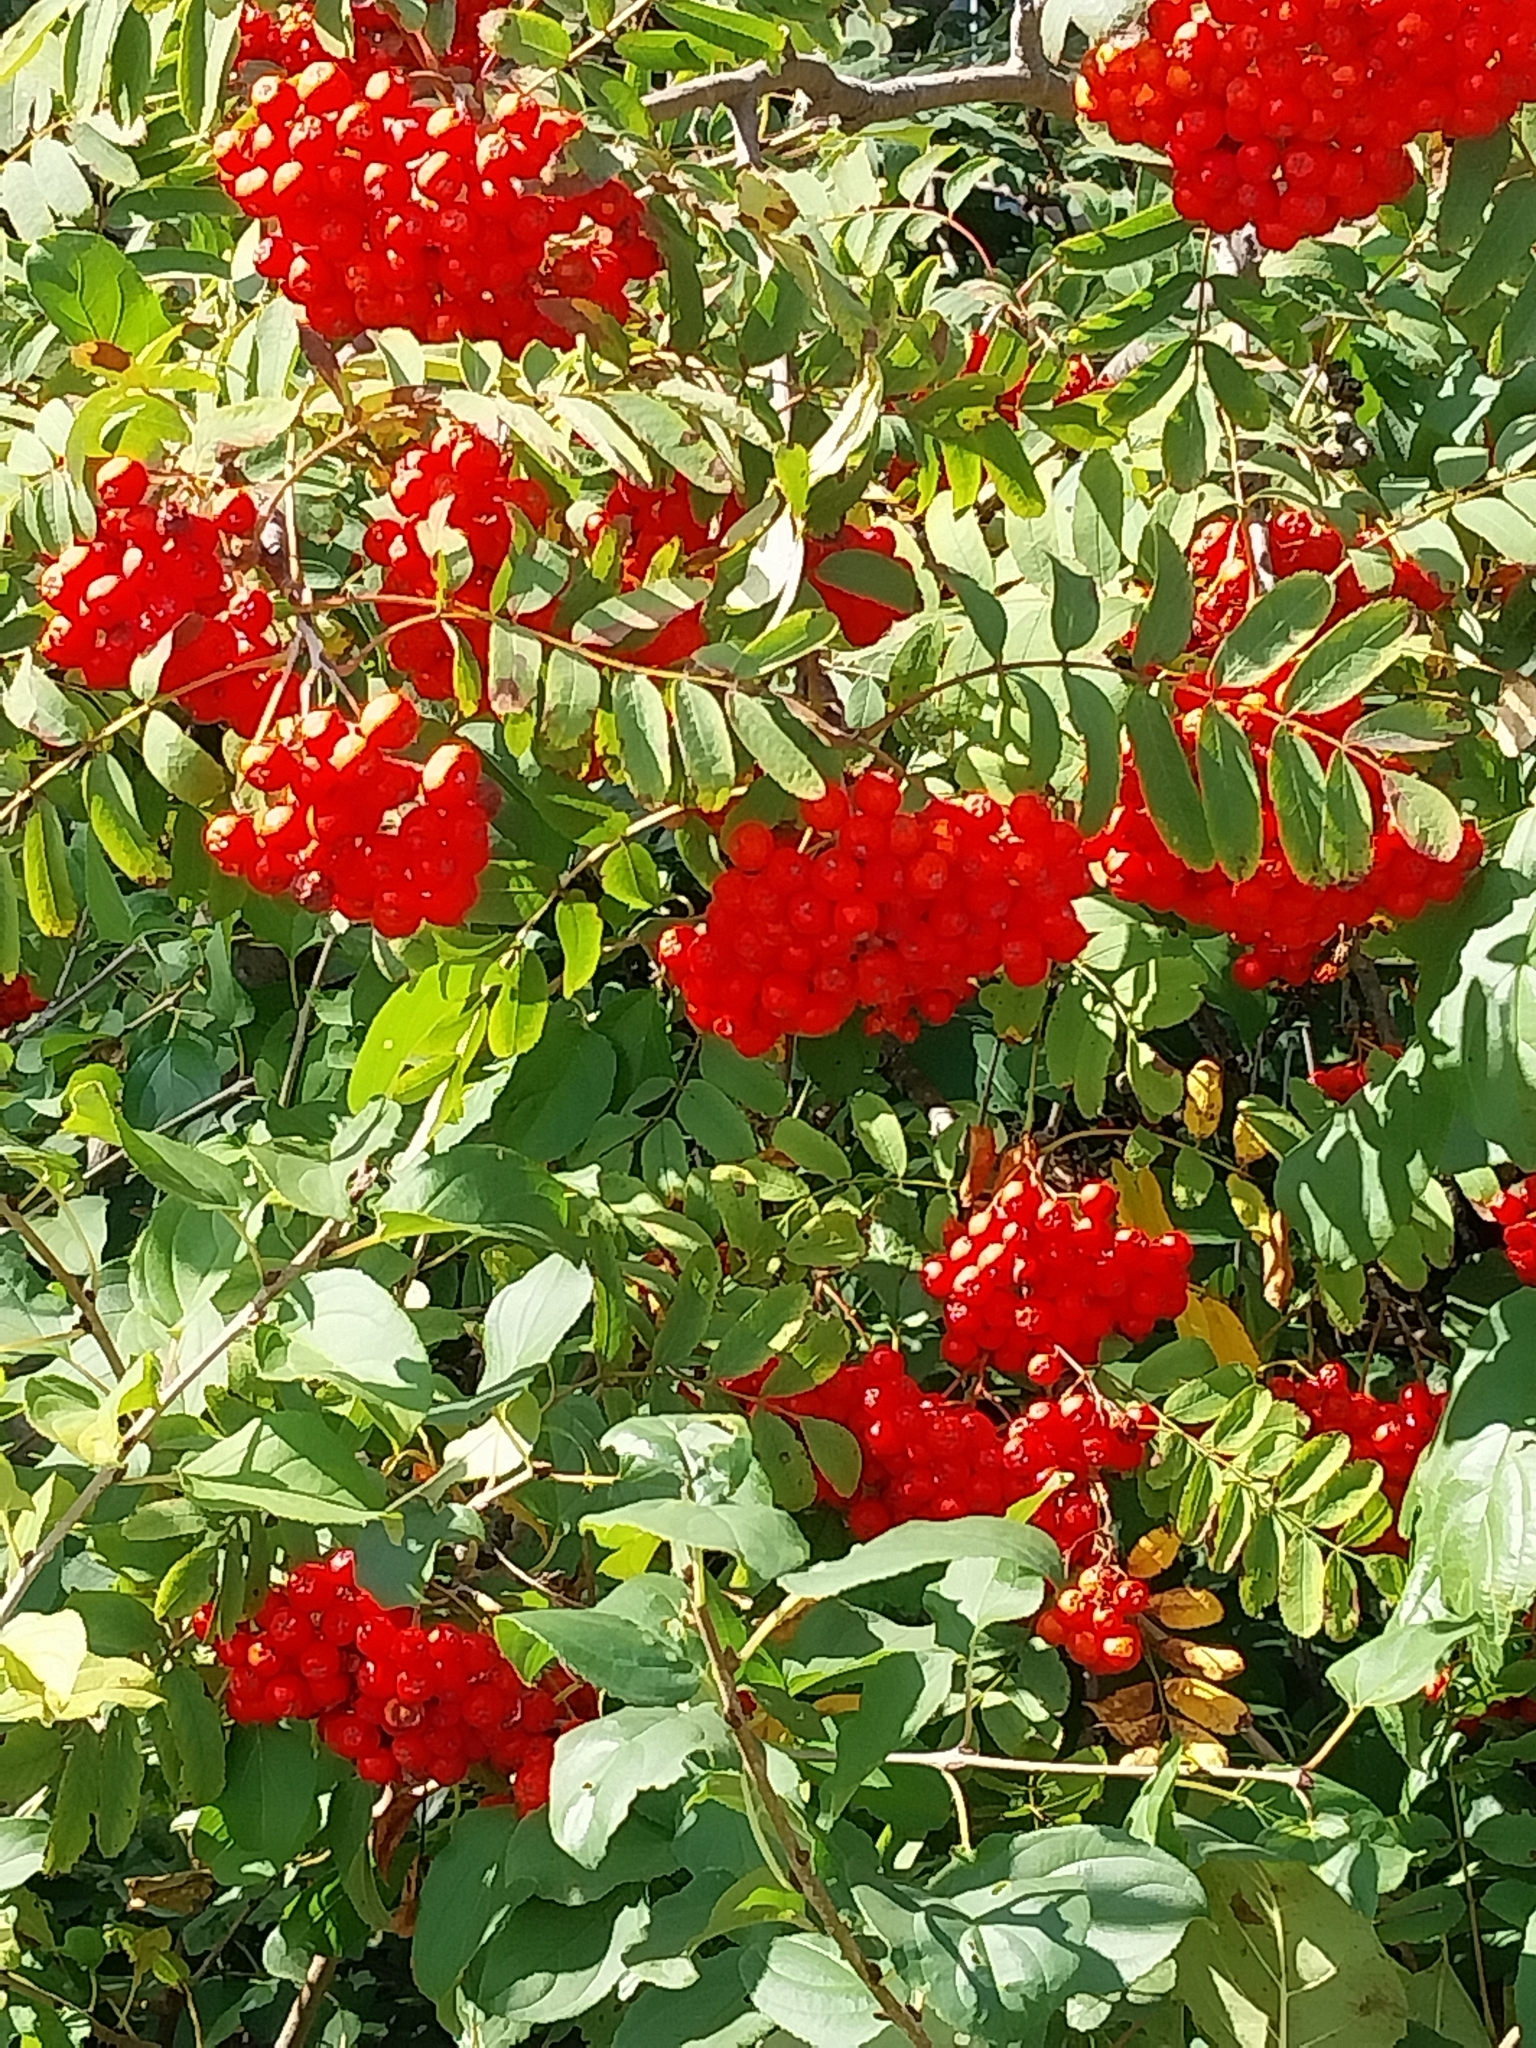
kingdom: Plantae
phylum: Tracheophyta
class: Magnoliopsida
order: Rosales
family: Rosaceae
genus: Sorbus
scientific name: Sorbus aucuparia
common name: Rowan
